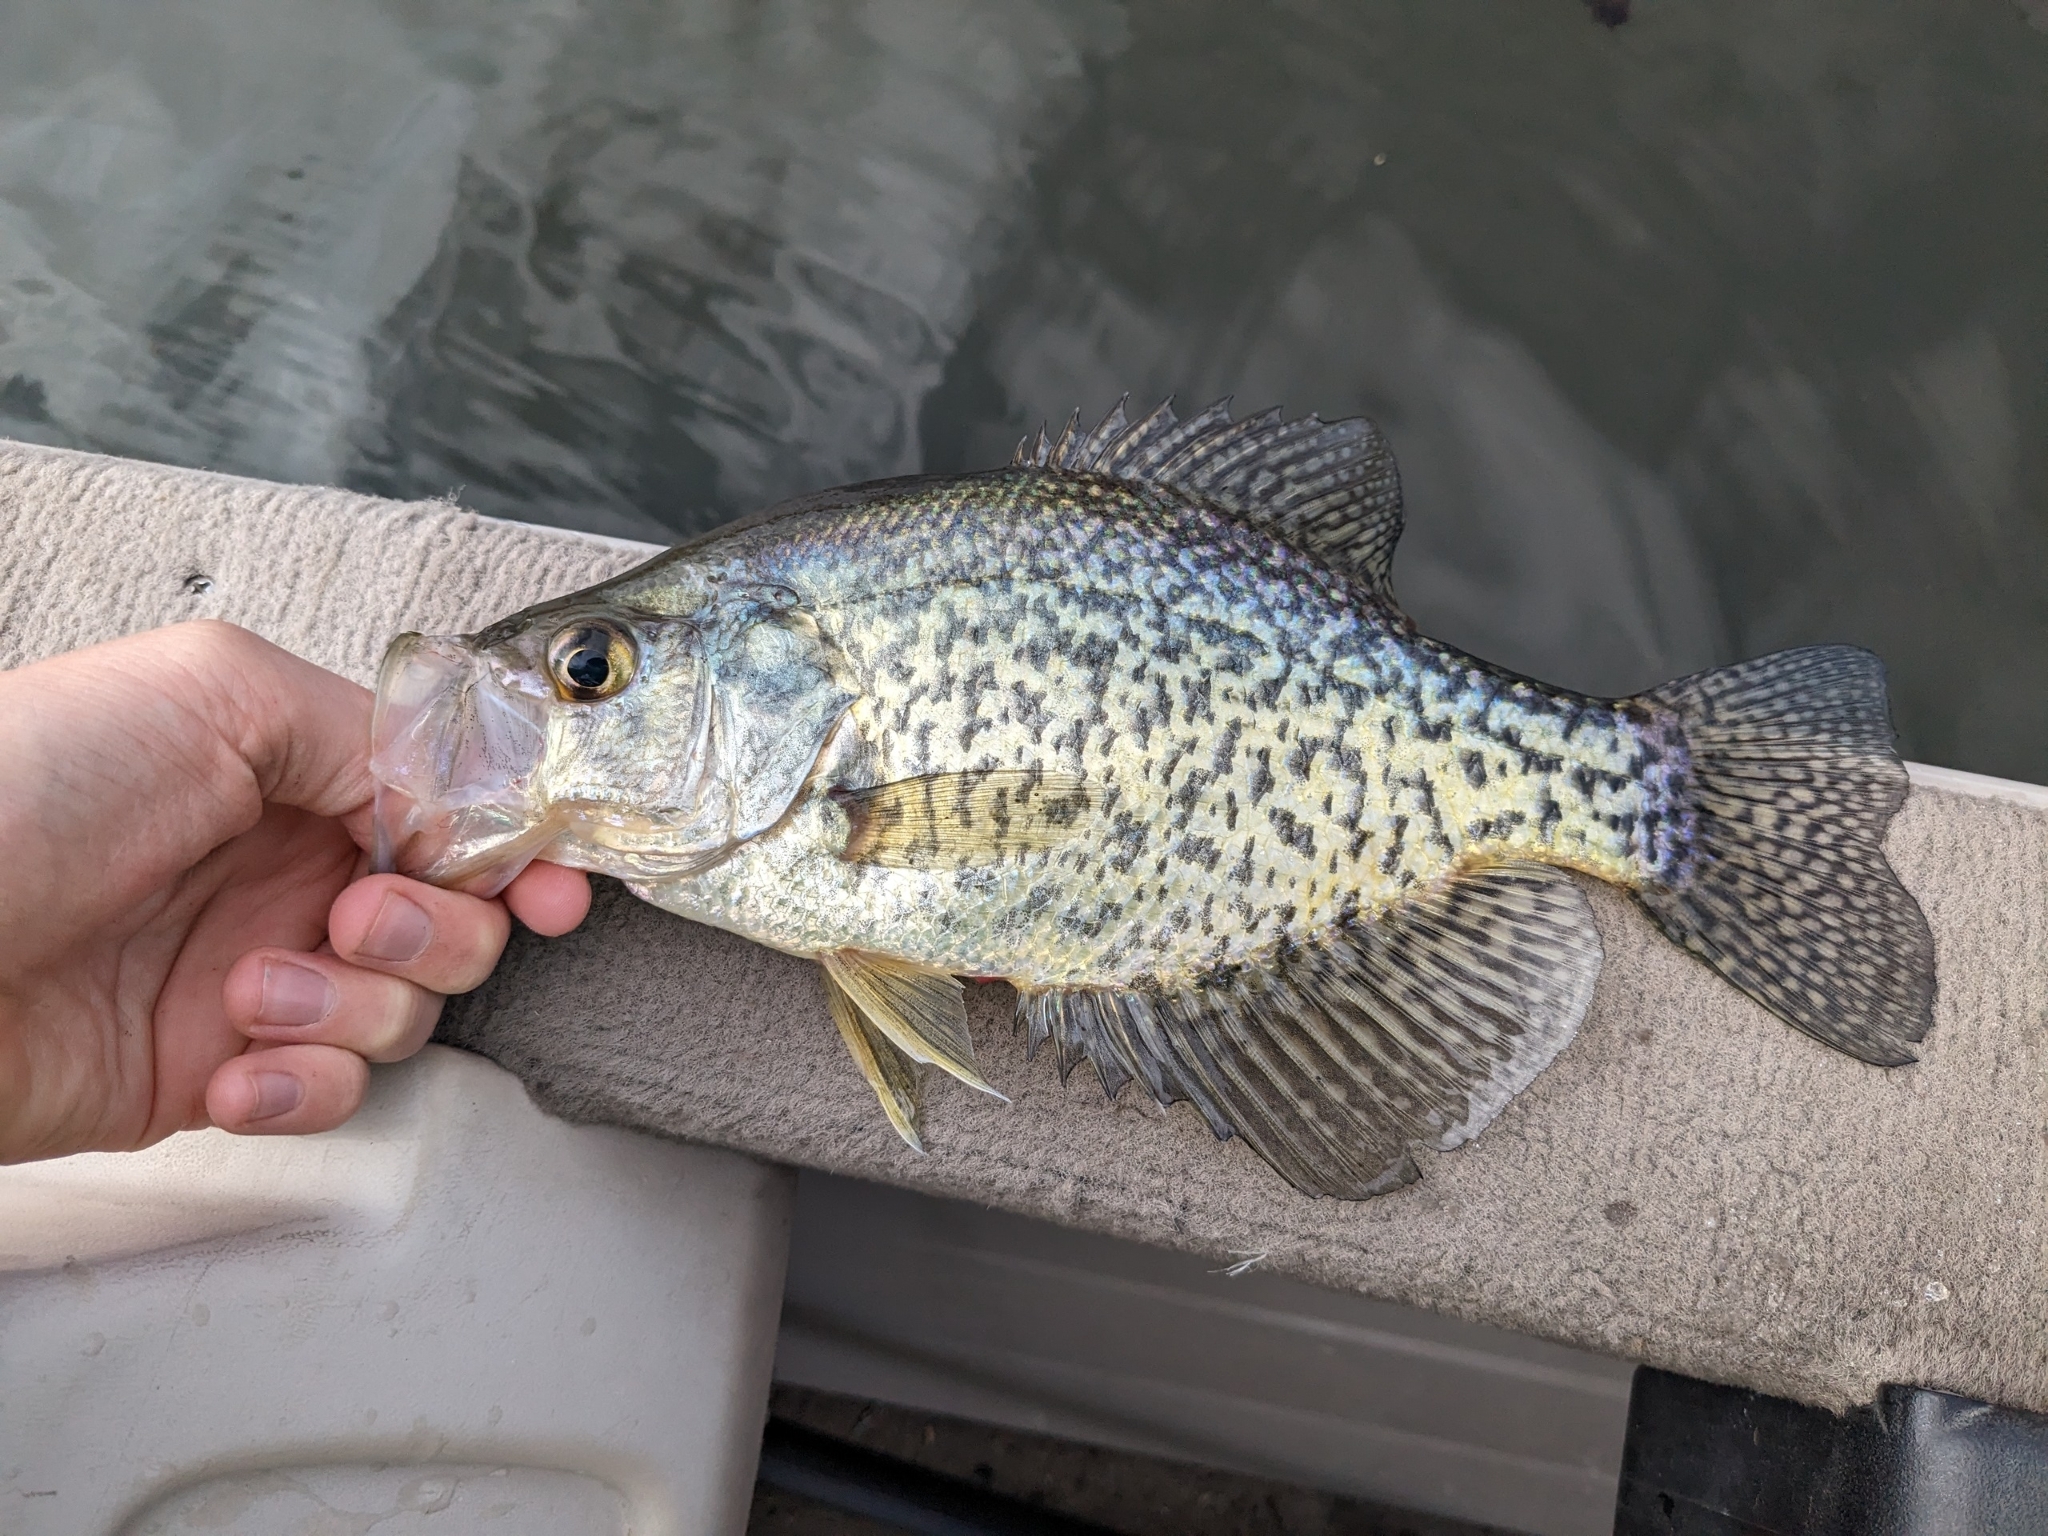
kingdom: Animalia
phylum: Chordata
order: Perciformes
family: Centrarchidae
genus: Pomoxis
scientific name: Pomoxis nigromaculatus
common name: Black crappie
